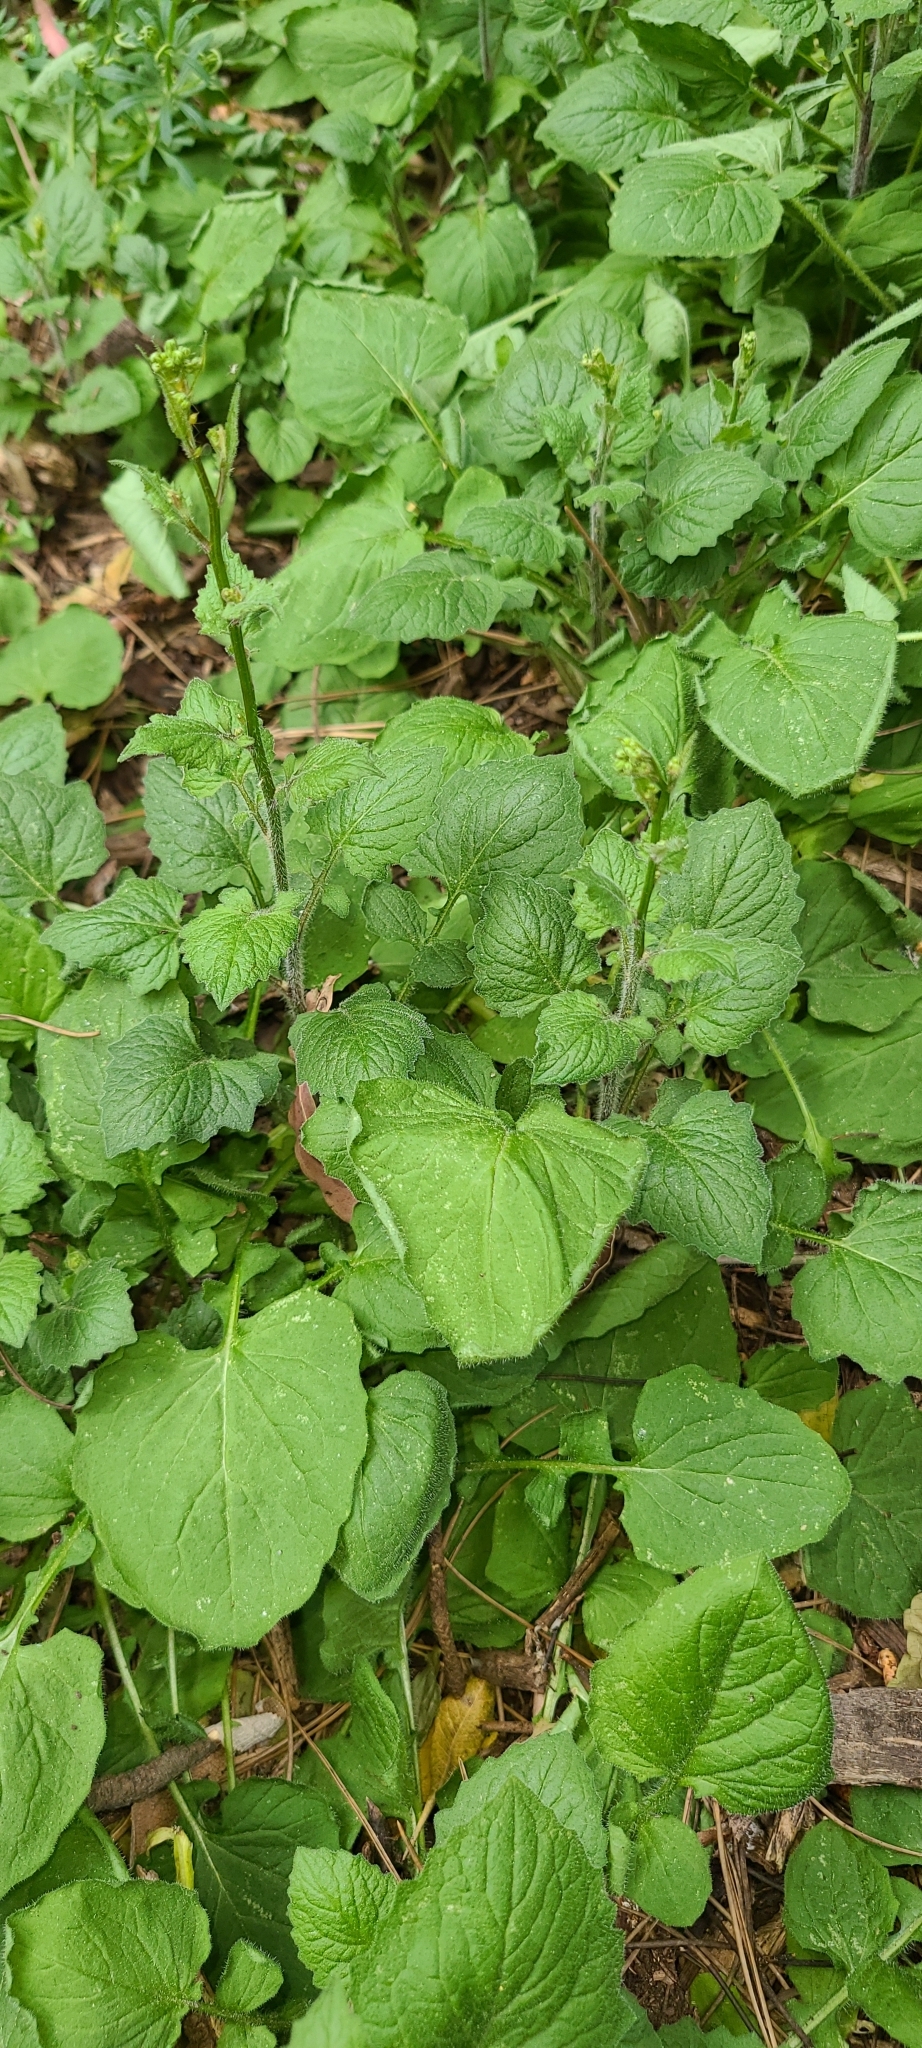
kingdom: Plantae
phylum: Tracheophyta
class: Magnoliopsida
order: Asterales
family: Asteraceae
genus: Lapsana
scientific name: Lapsana communis
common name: Nipplewort
